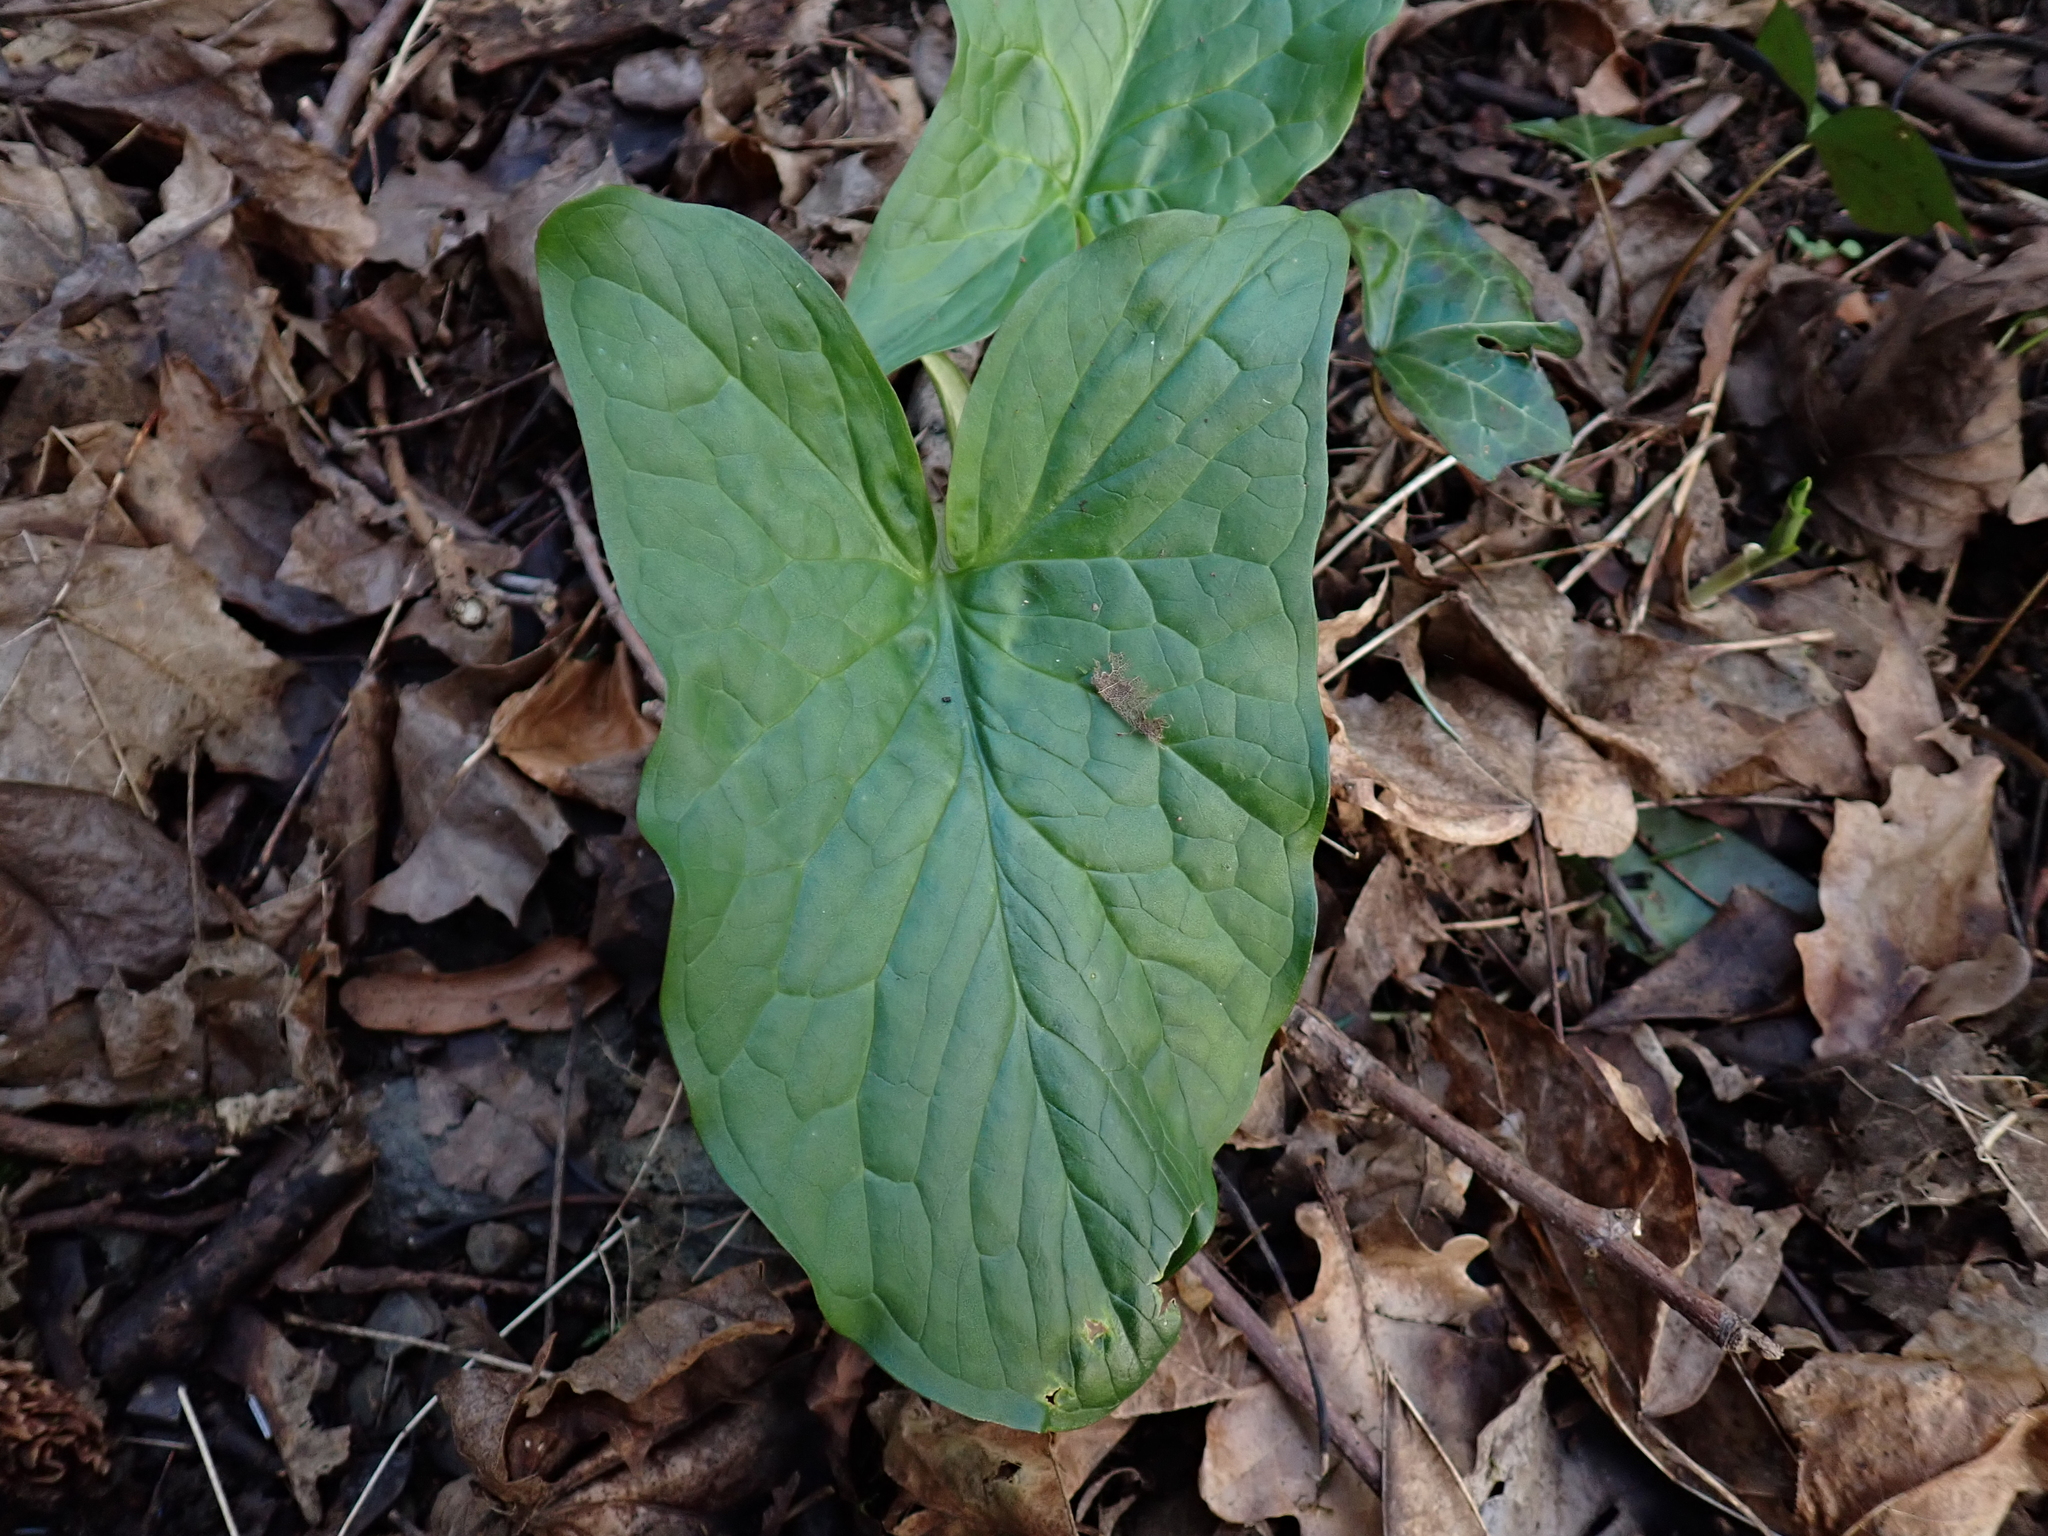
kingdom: Plantae
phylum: Tracheophyta
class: Liliopsida
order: Alismatales
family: Araceae
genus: Arum
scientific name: Arum maculatum
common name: Lords-and-ladies
